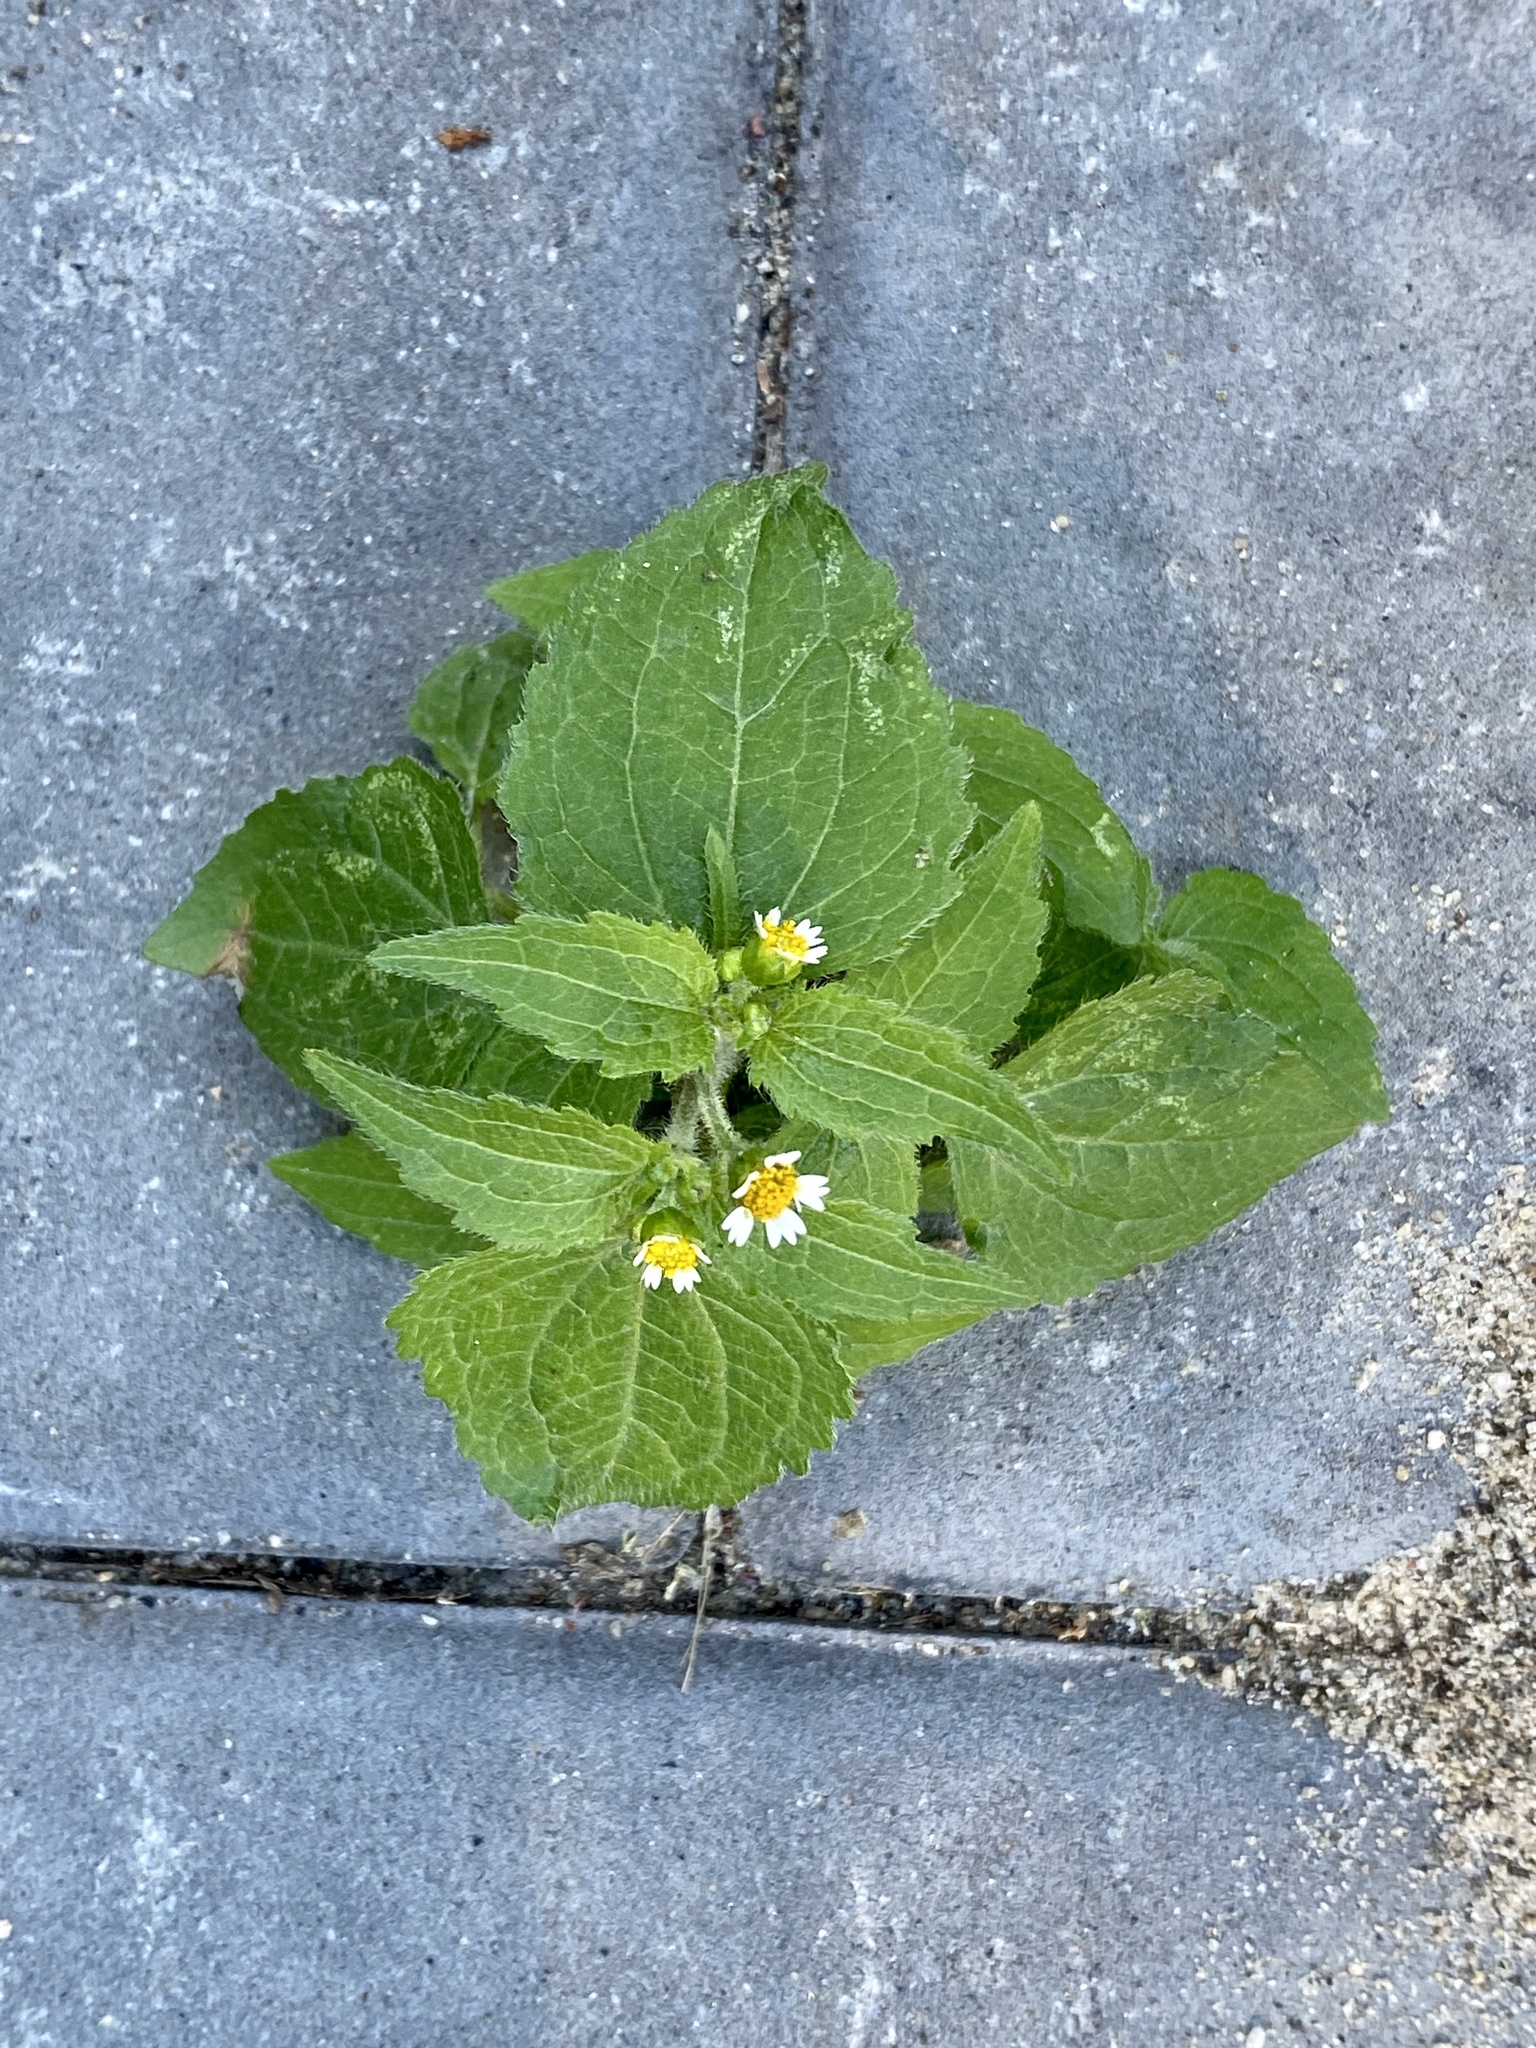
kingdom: Plantae
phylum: Tracheophyta
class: Magnoliopsida
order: Asterales
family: Asteraceae
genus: Galinsoga
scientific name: Galinsoga quadriradiata
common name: Shaggy soldier
